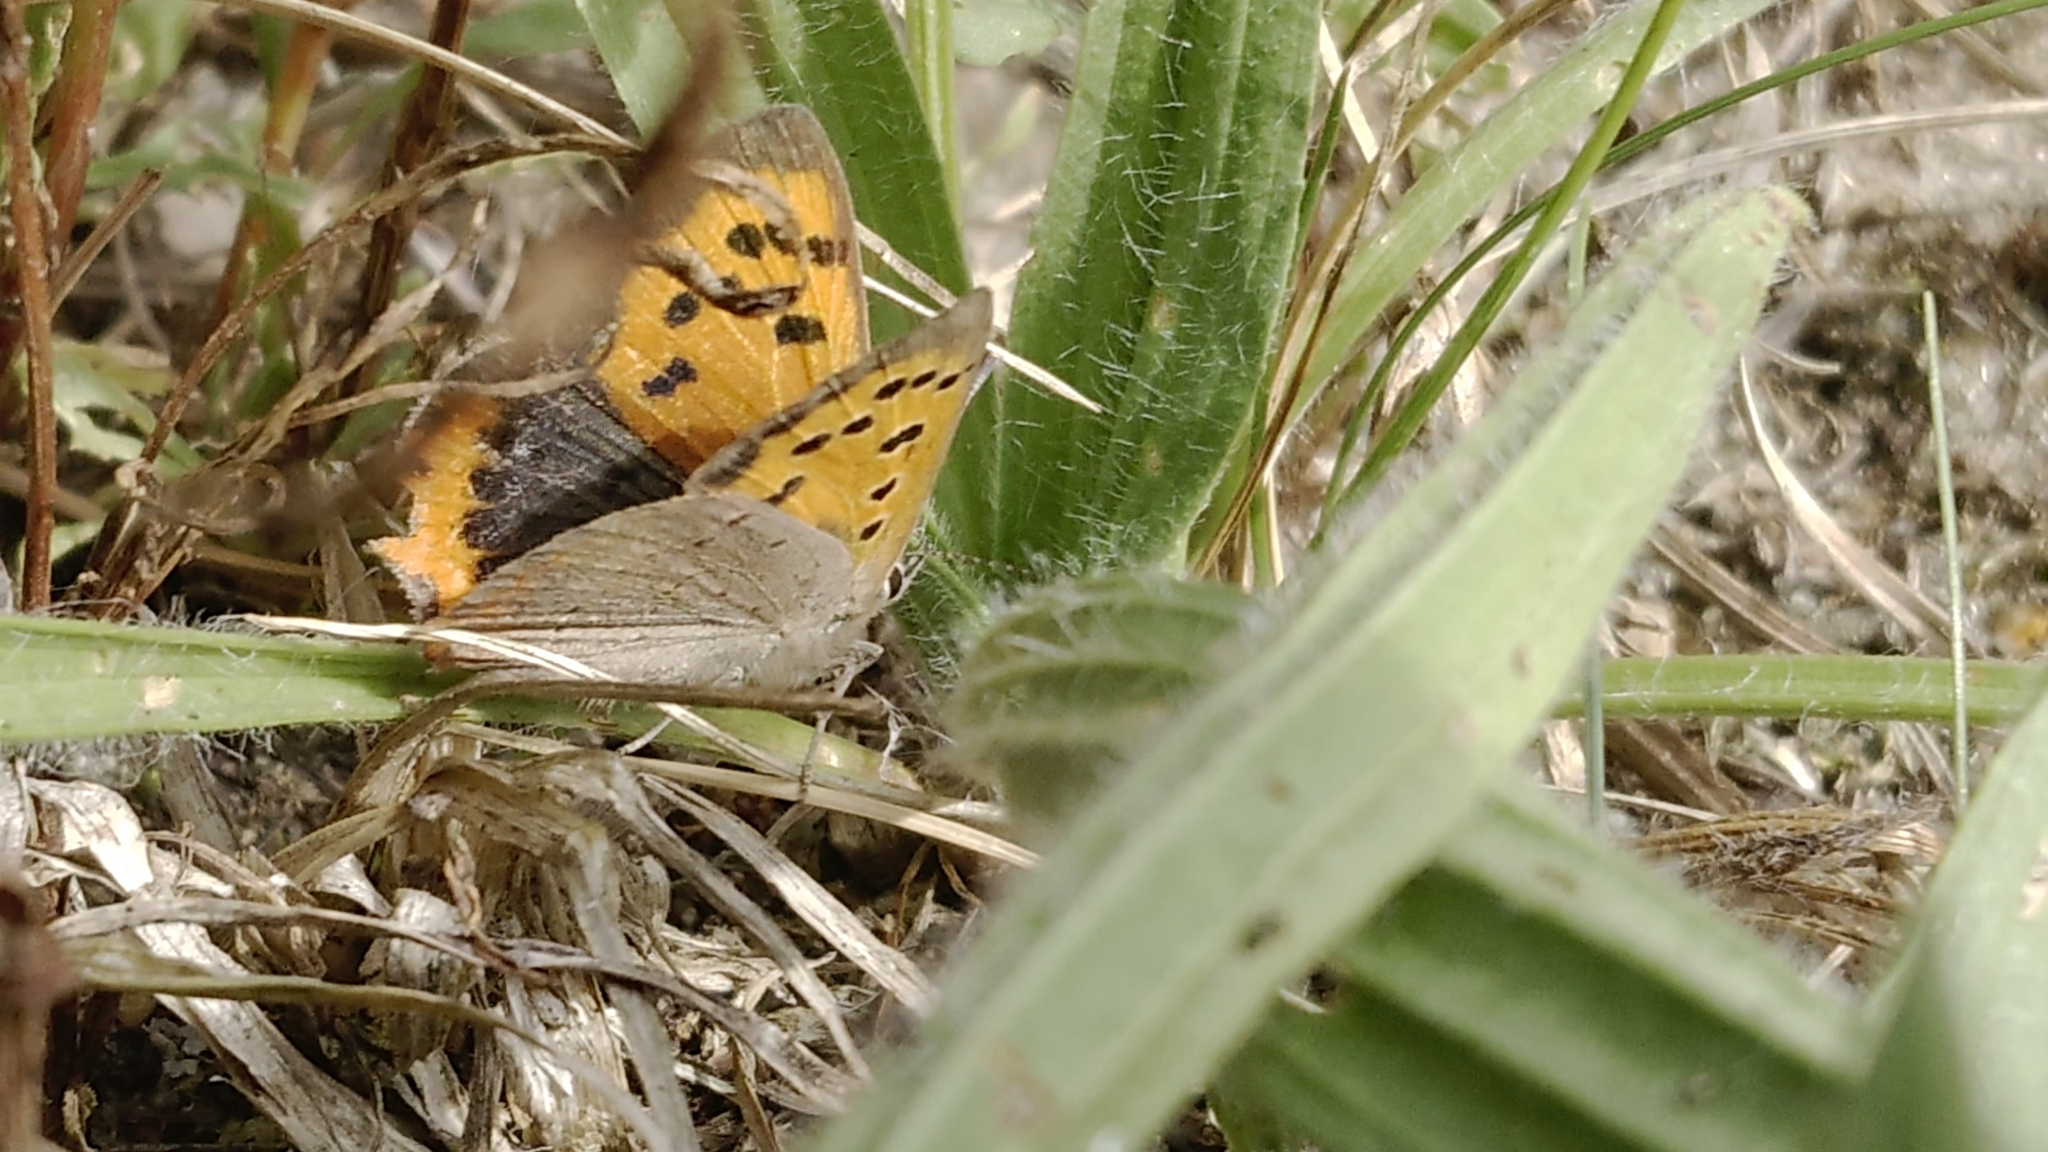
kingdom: Animalia
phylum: Arthropoda
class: Insecta
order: Lepidoptera
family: Lycaenidae
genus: Lycaena
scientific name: Lycaena phlaeas
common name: Small copper
